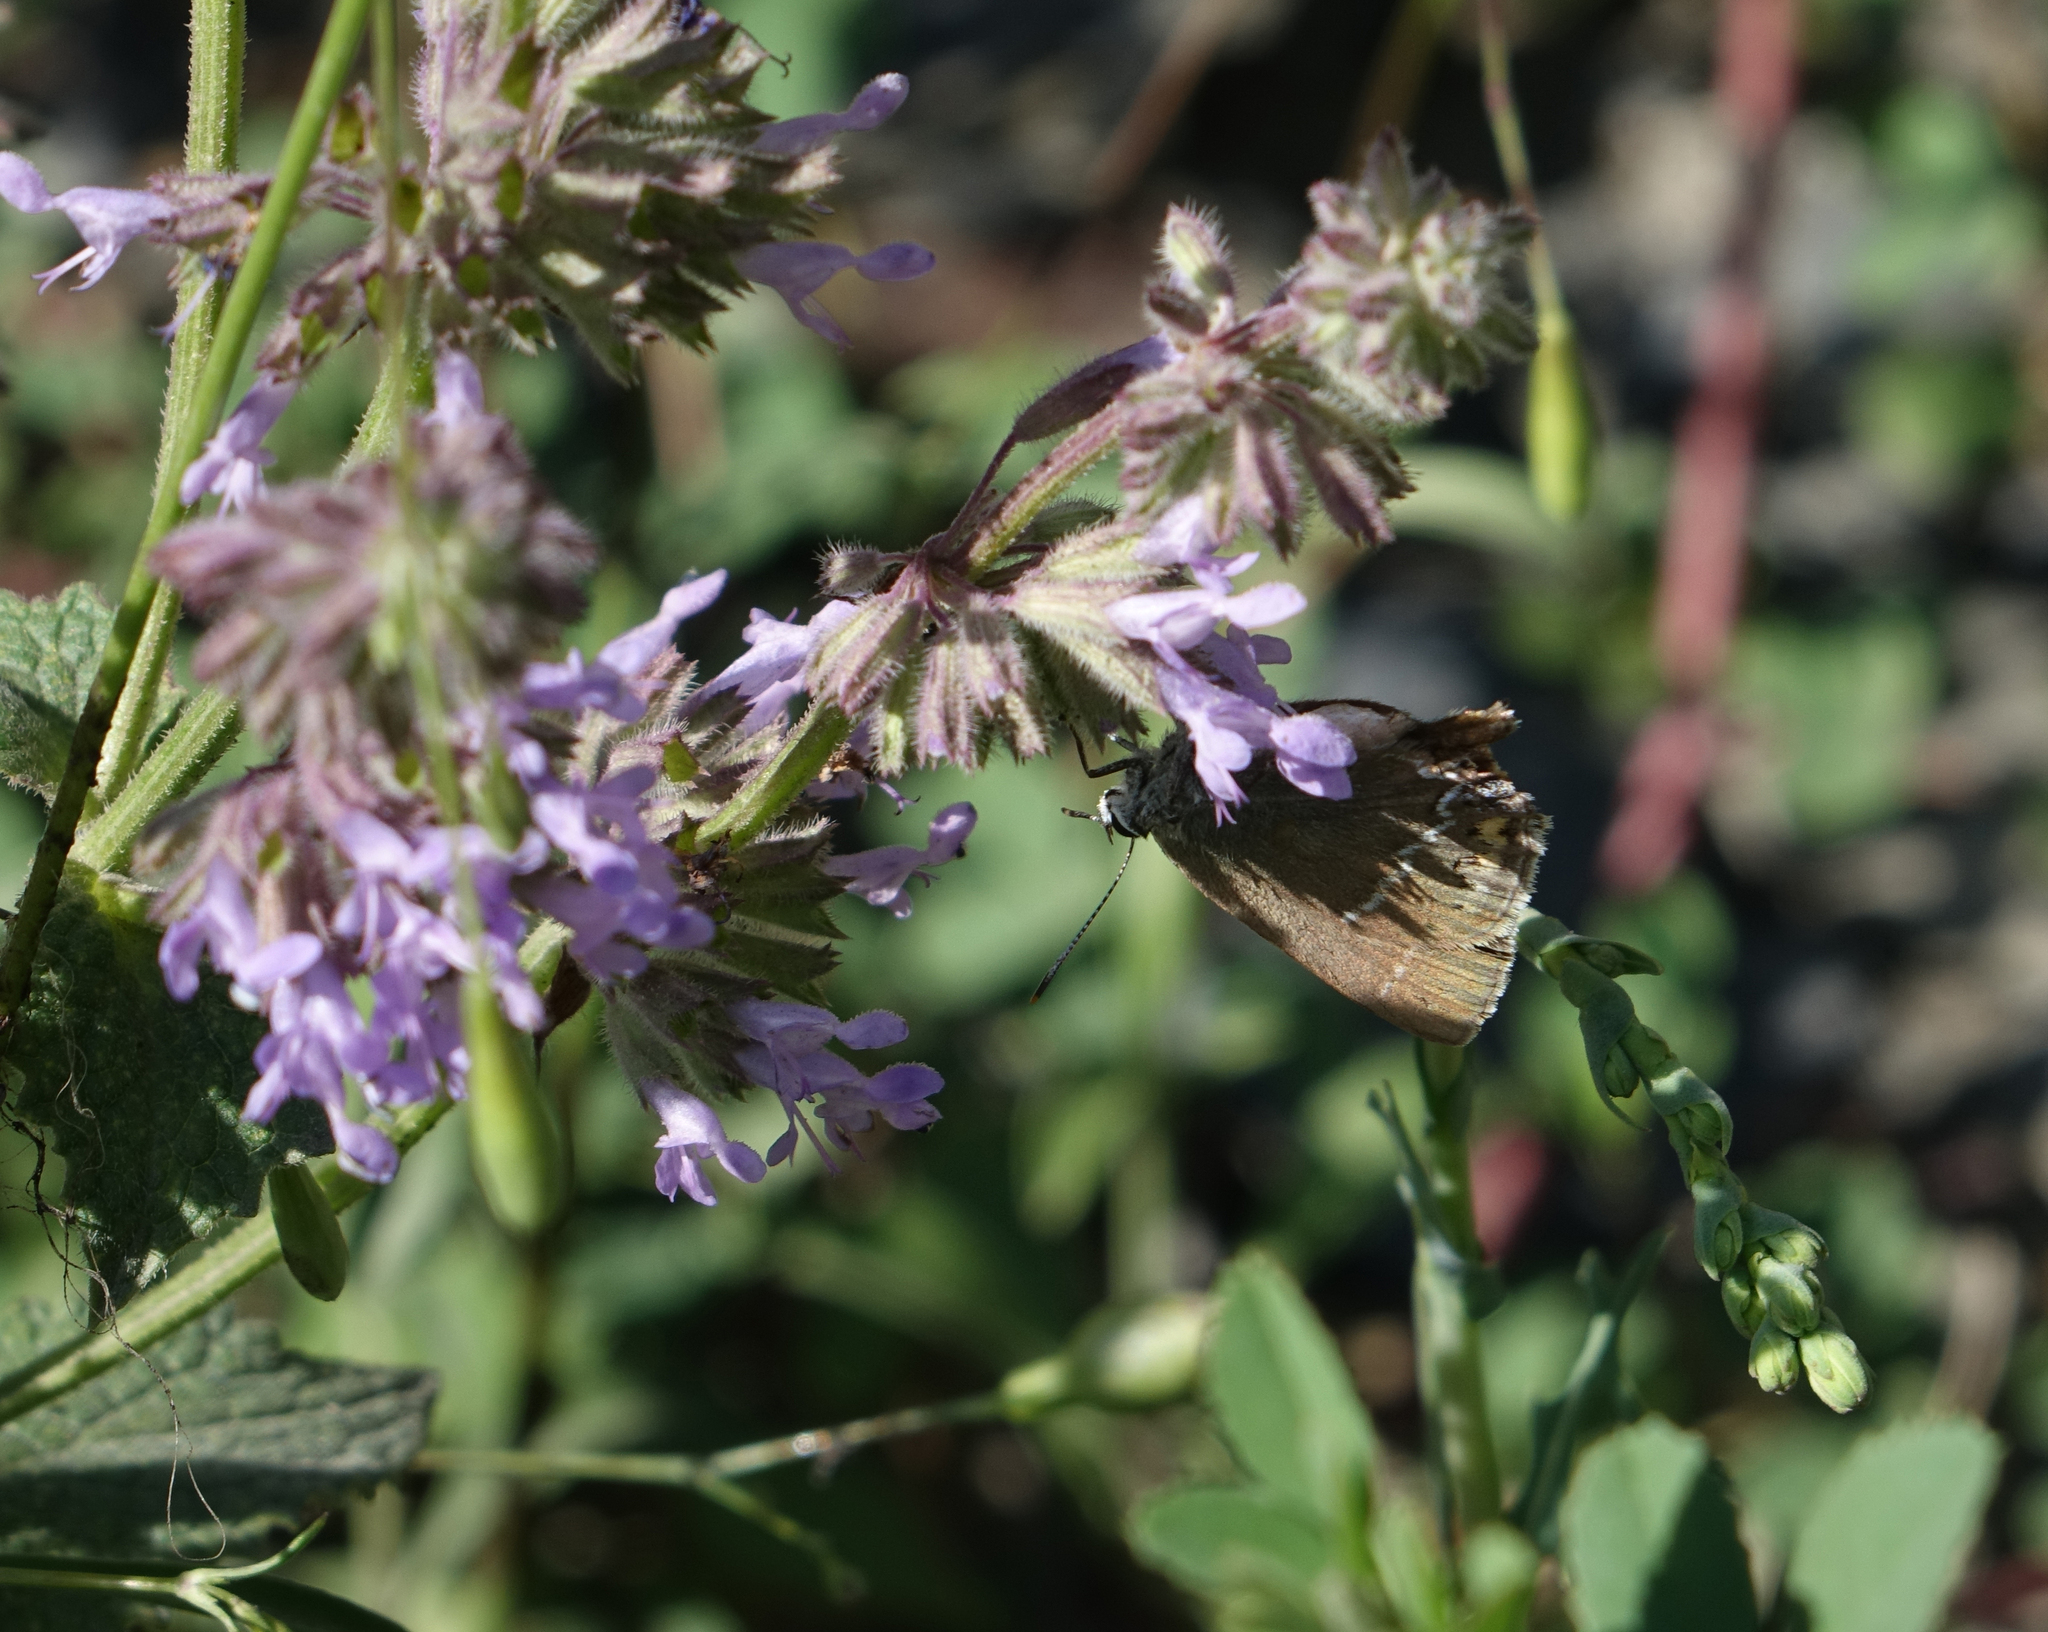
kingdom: Animalia
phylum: Arthropoda
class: Insecta
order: Lepidoptera
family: Lycaenidae
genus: Tuttiola
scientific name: Tuttiola spini
